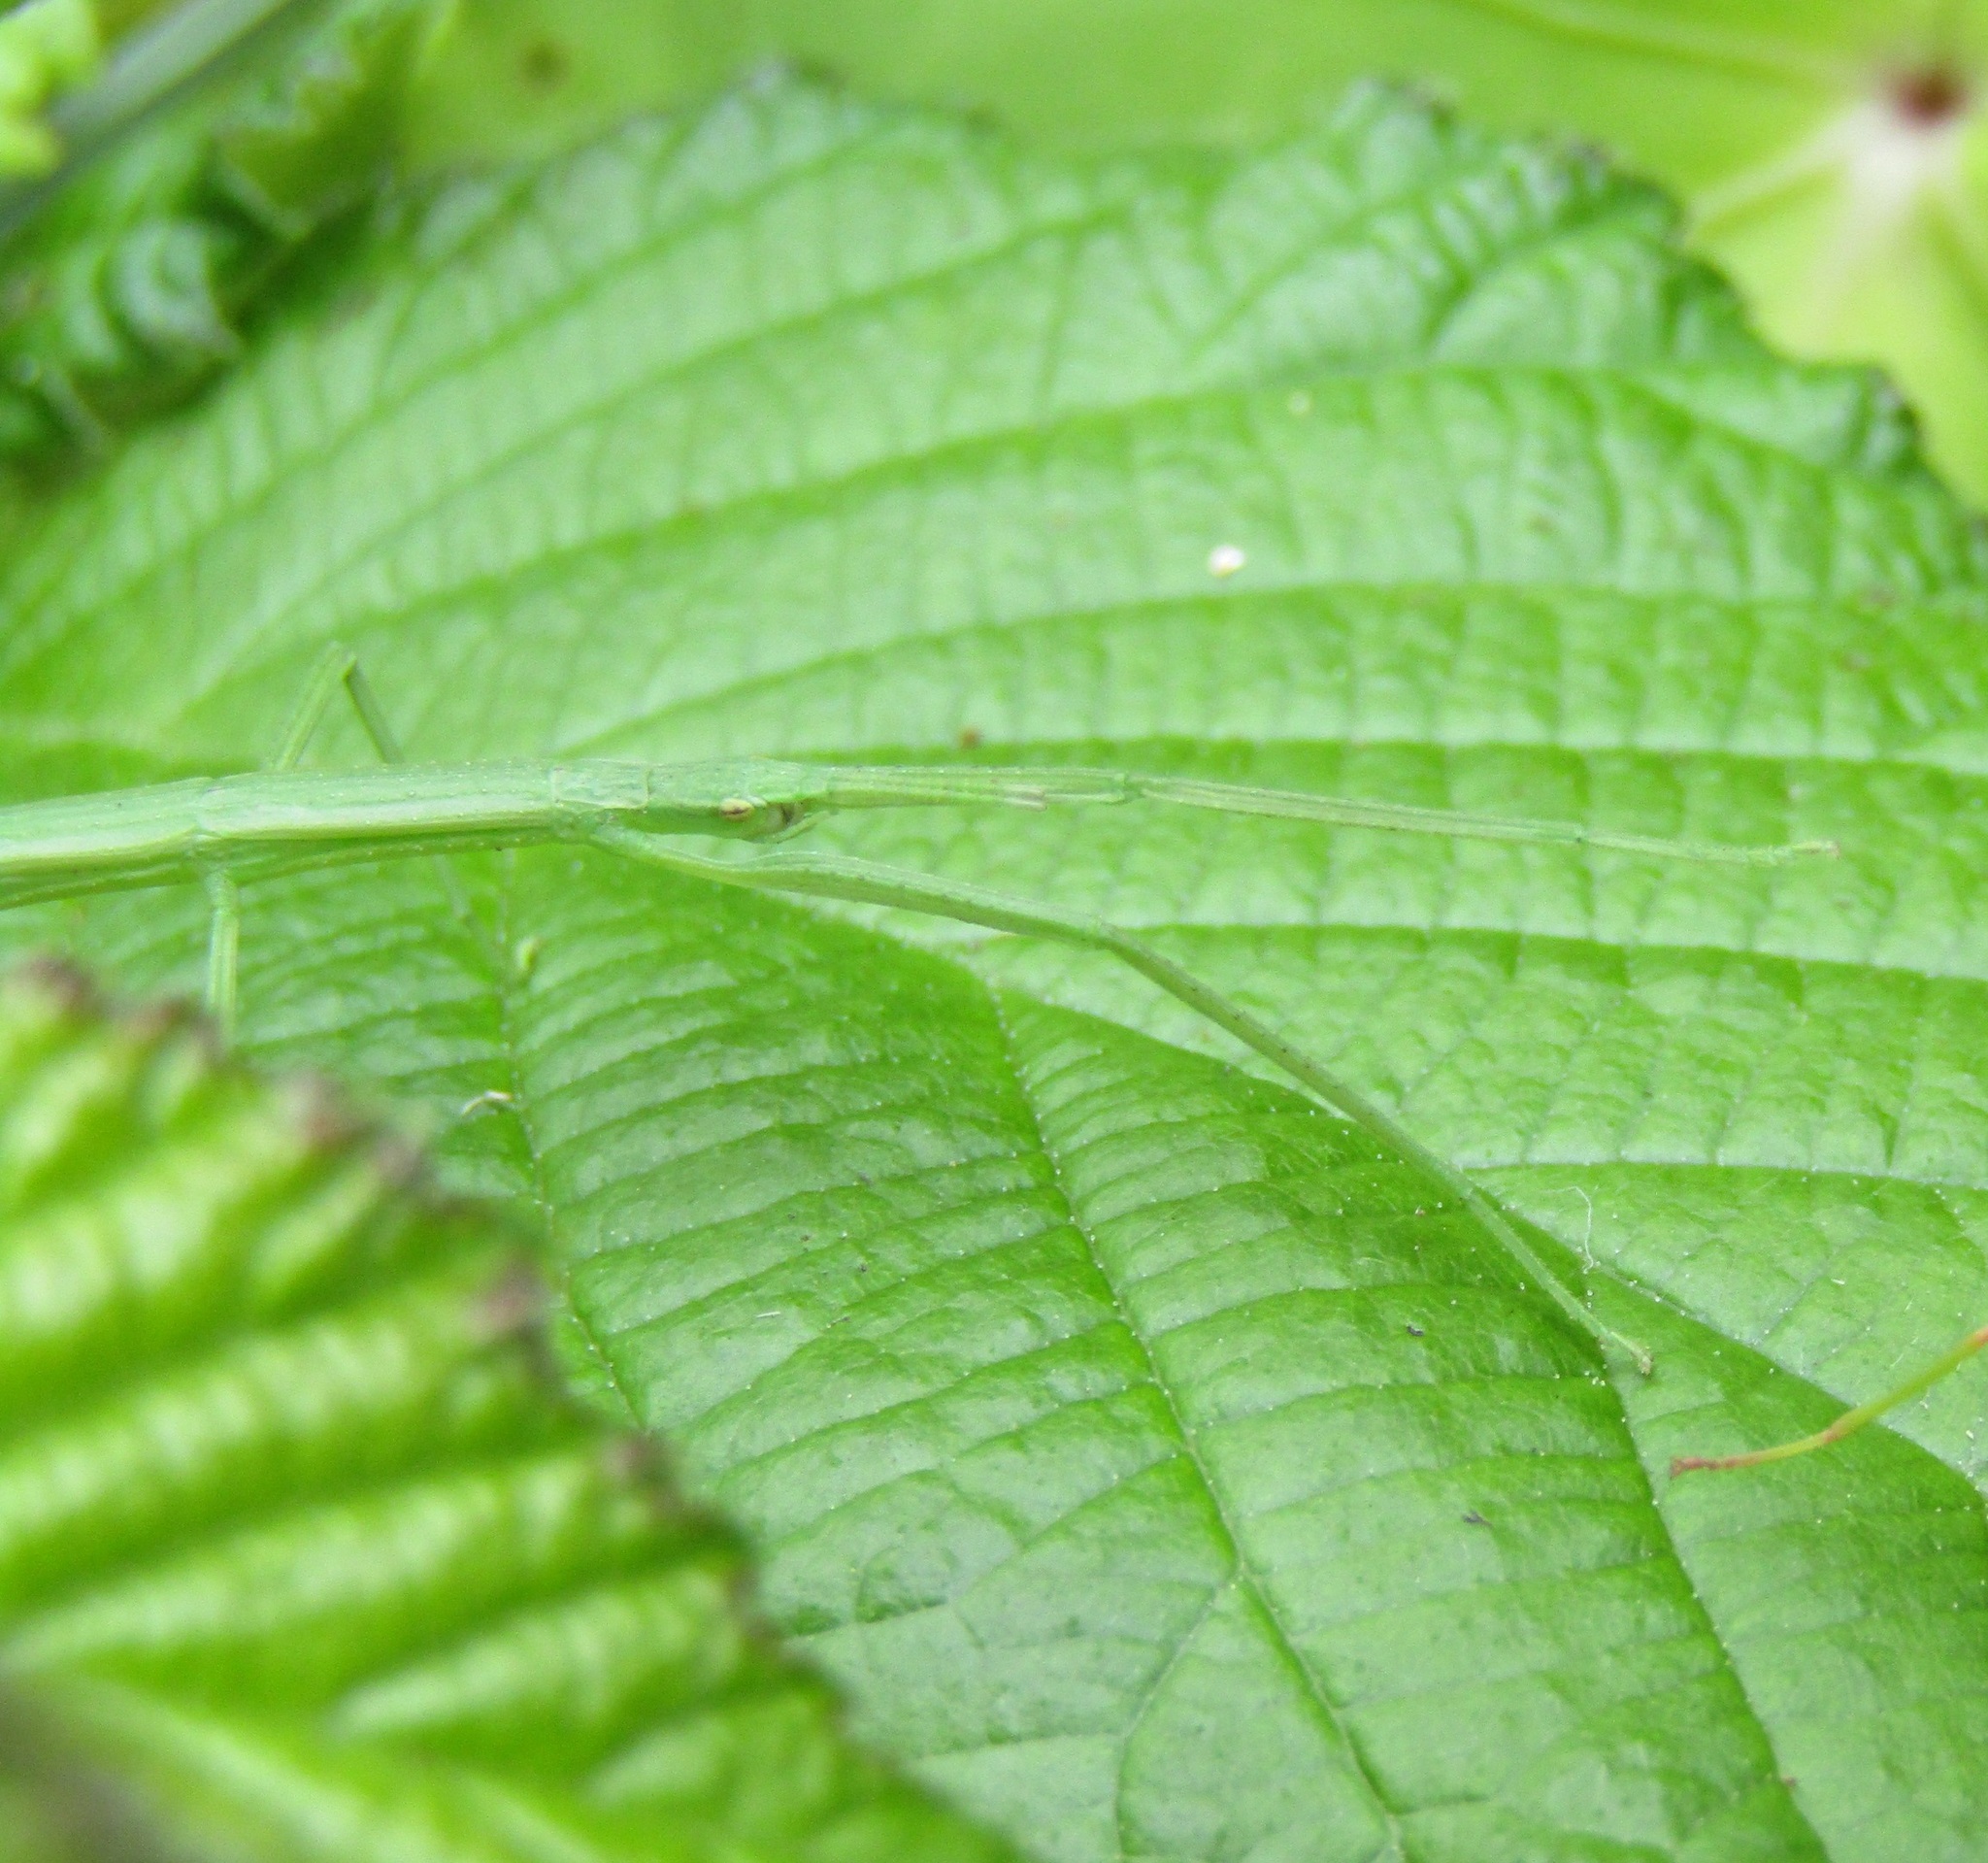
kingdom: Animalia
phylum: Arthropoda
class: Insecta
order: Phasmida
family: Phasmatidae
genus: Tectarchus
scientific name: Tectarchus huttoni
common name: The common ridge-backed stick insect
